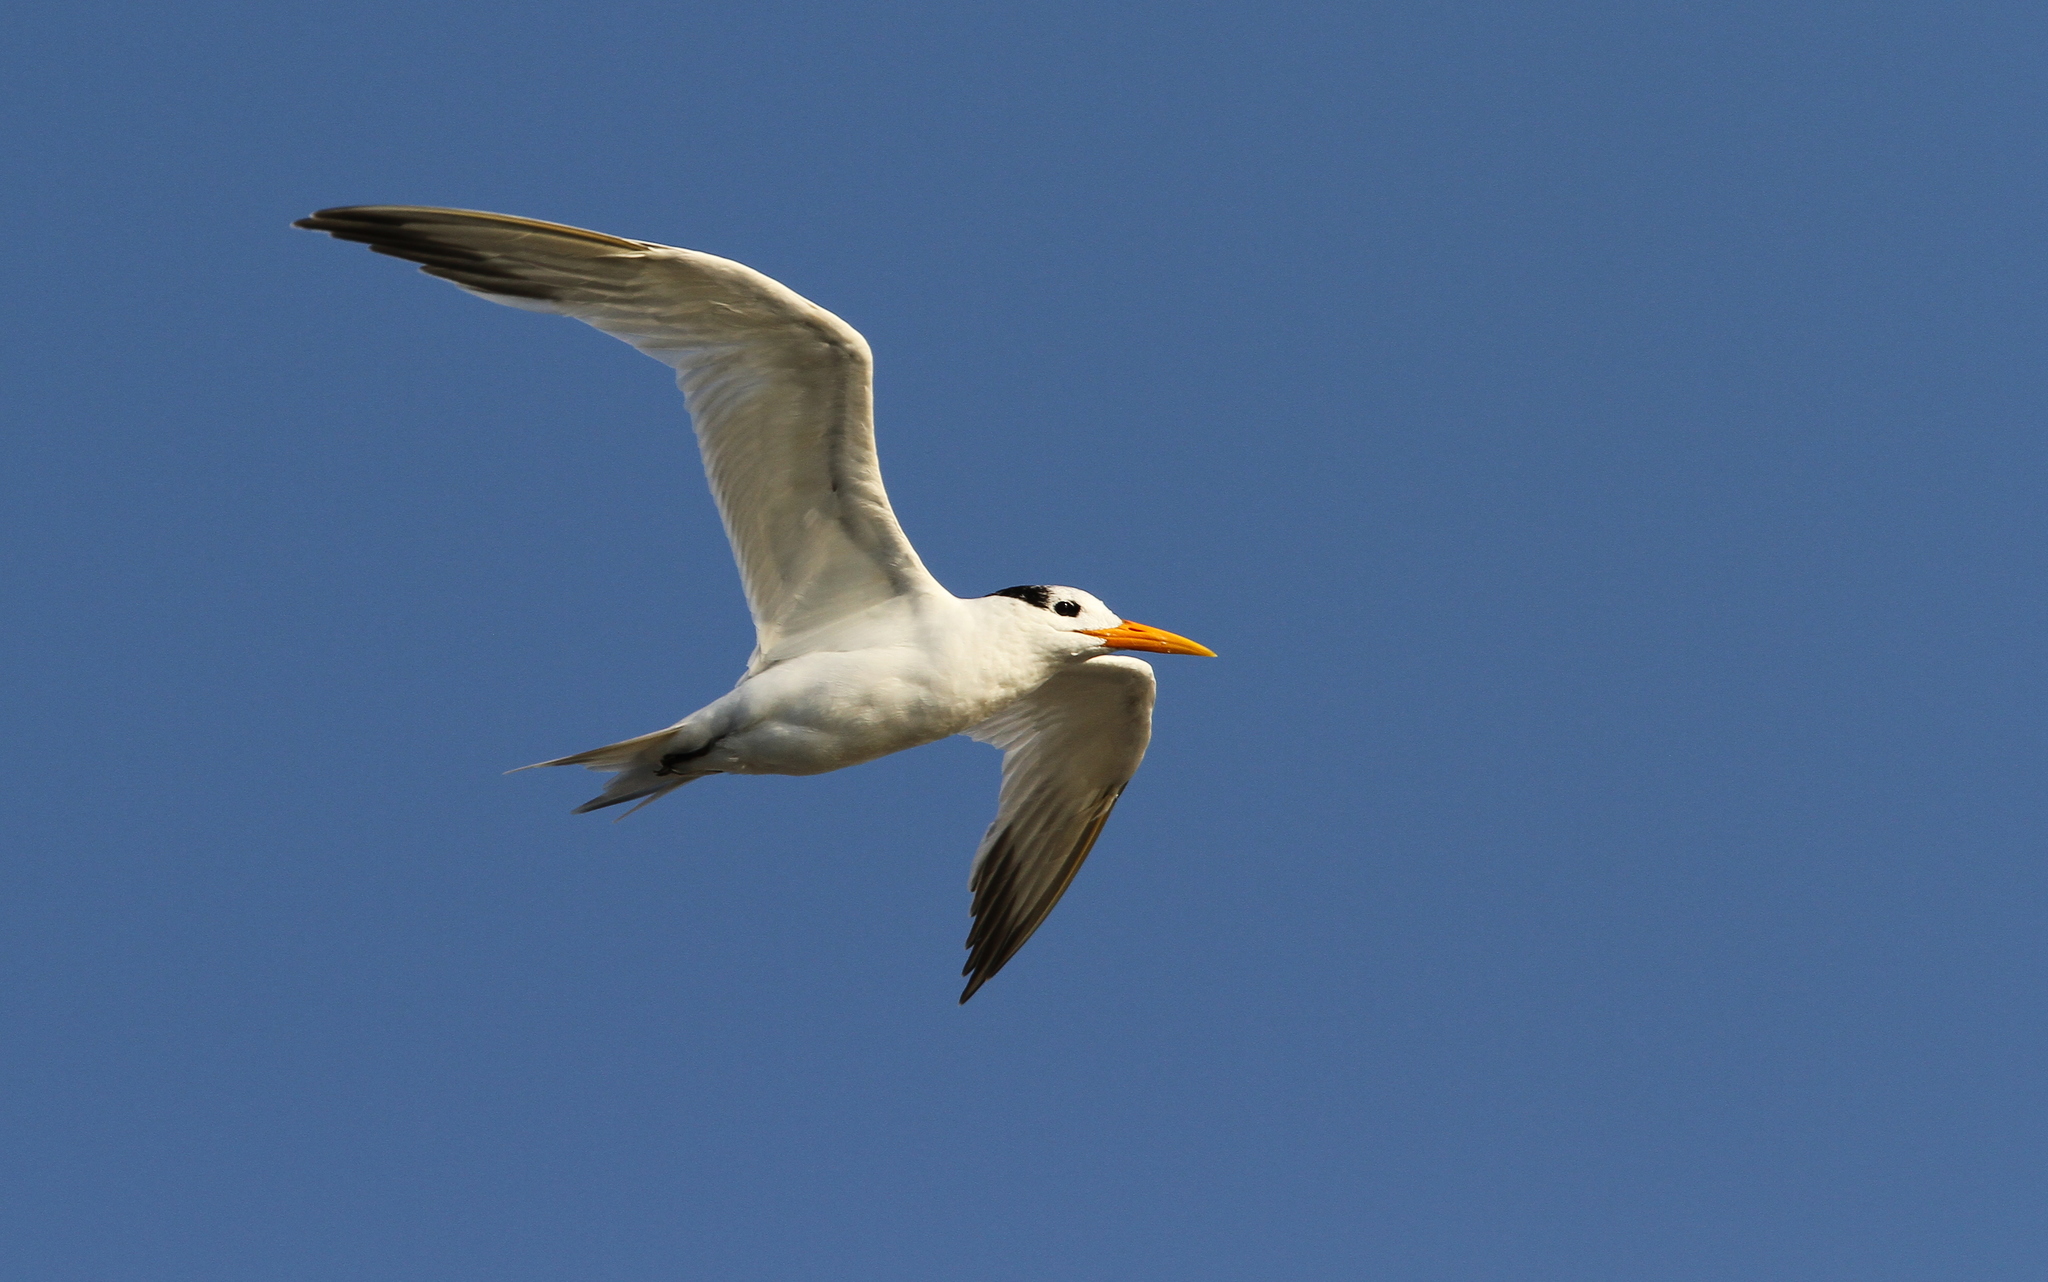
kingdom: Animalia
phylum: Chordata
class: Aves
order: Charadriiformes
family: Laridae
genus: Thalasseus
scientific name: Thalasseus albididorsalis
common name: West african crested tern
